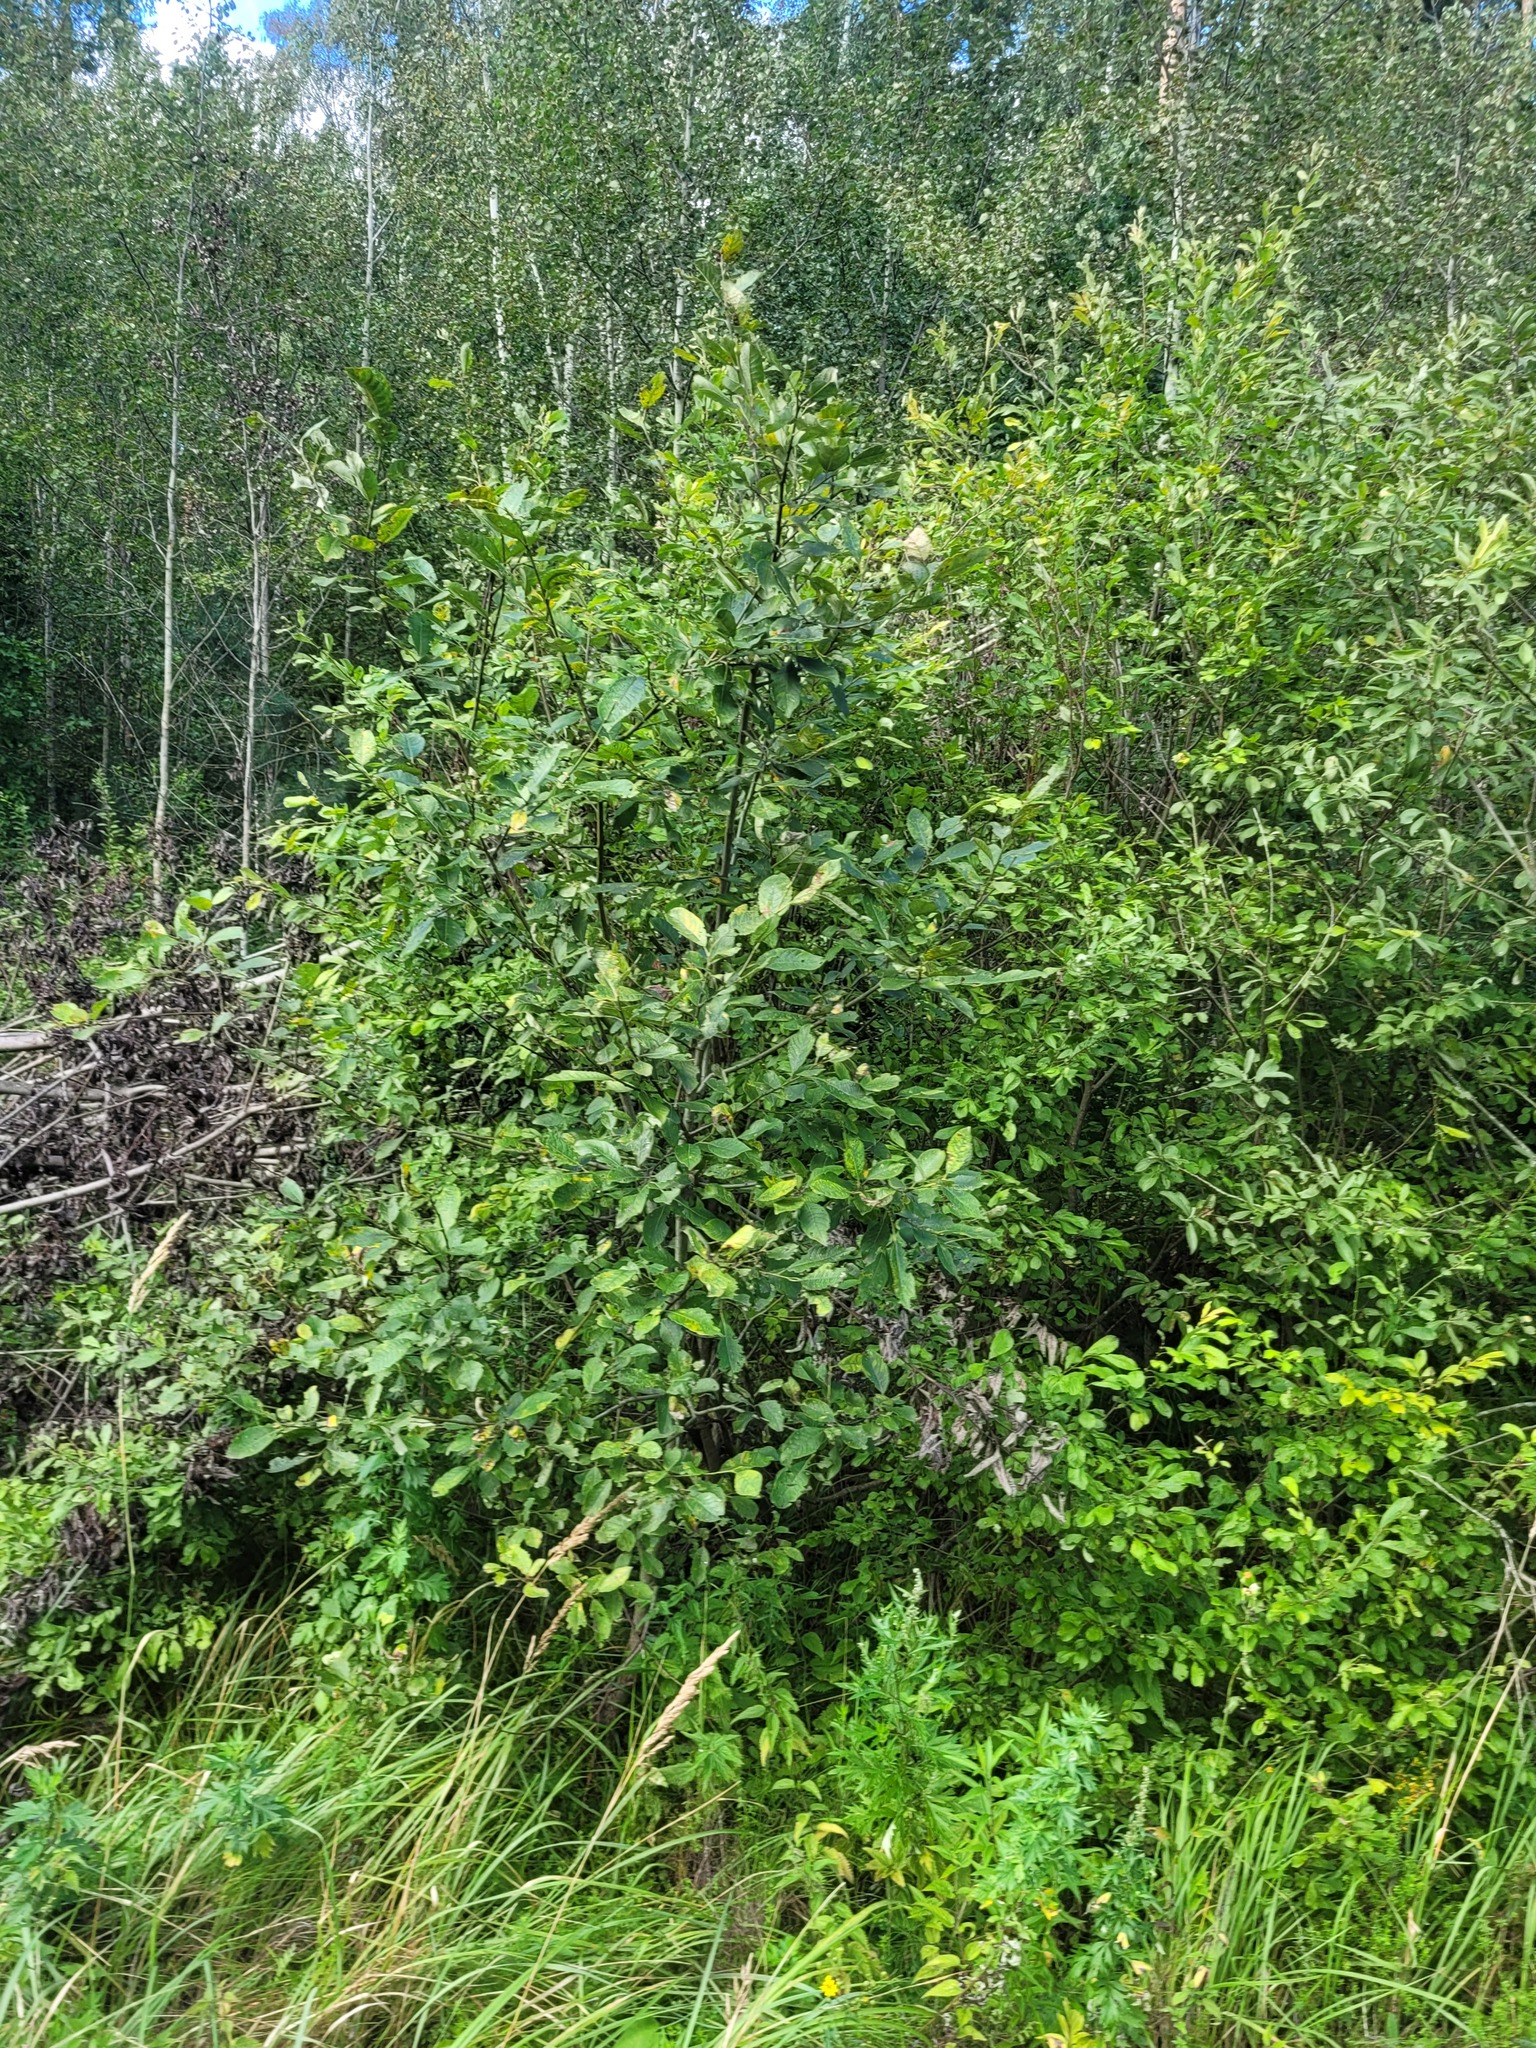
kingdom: Plantae
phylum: Tracheophyta
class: Magnoliopsida
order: Malpighiales
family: Salicaceae
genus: Salix
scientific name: Salix caprea
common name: Goat willow
